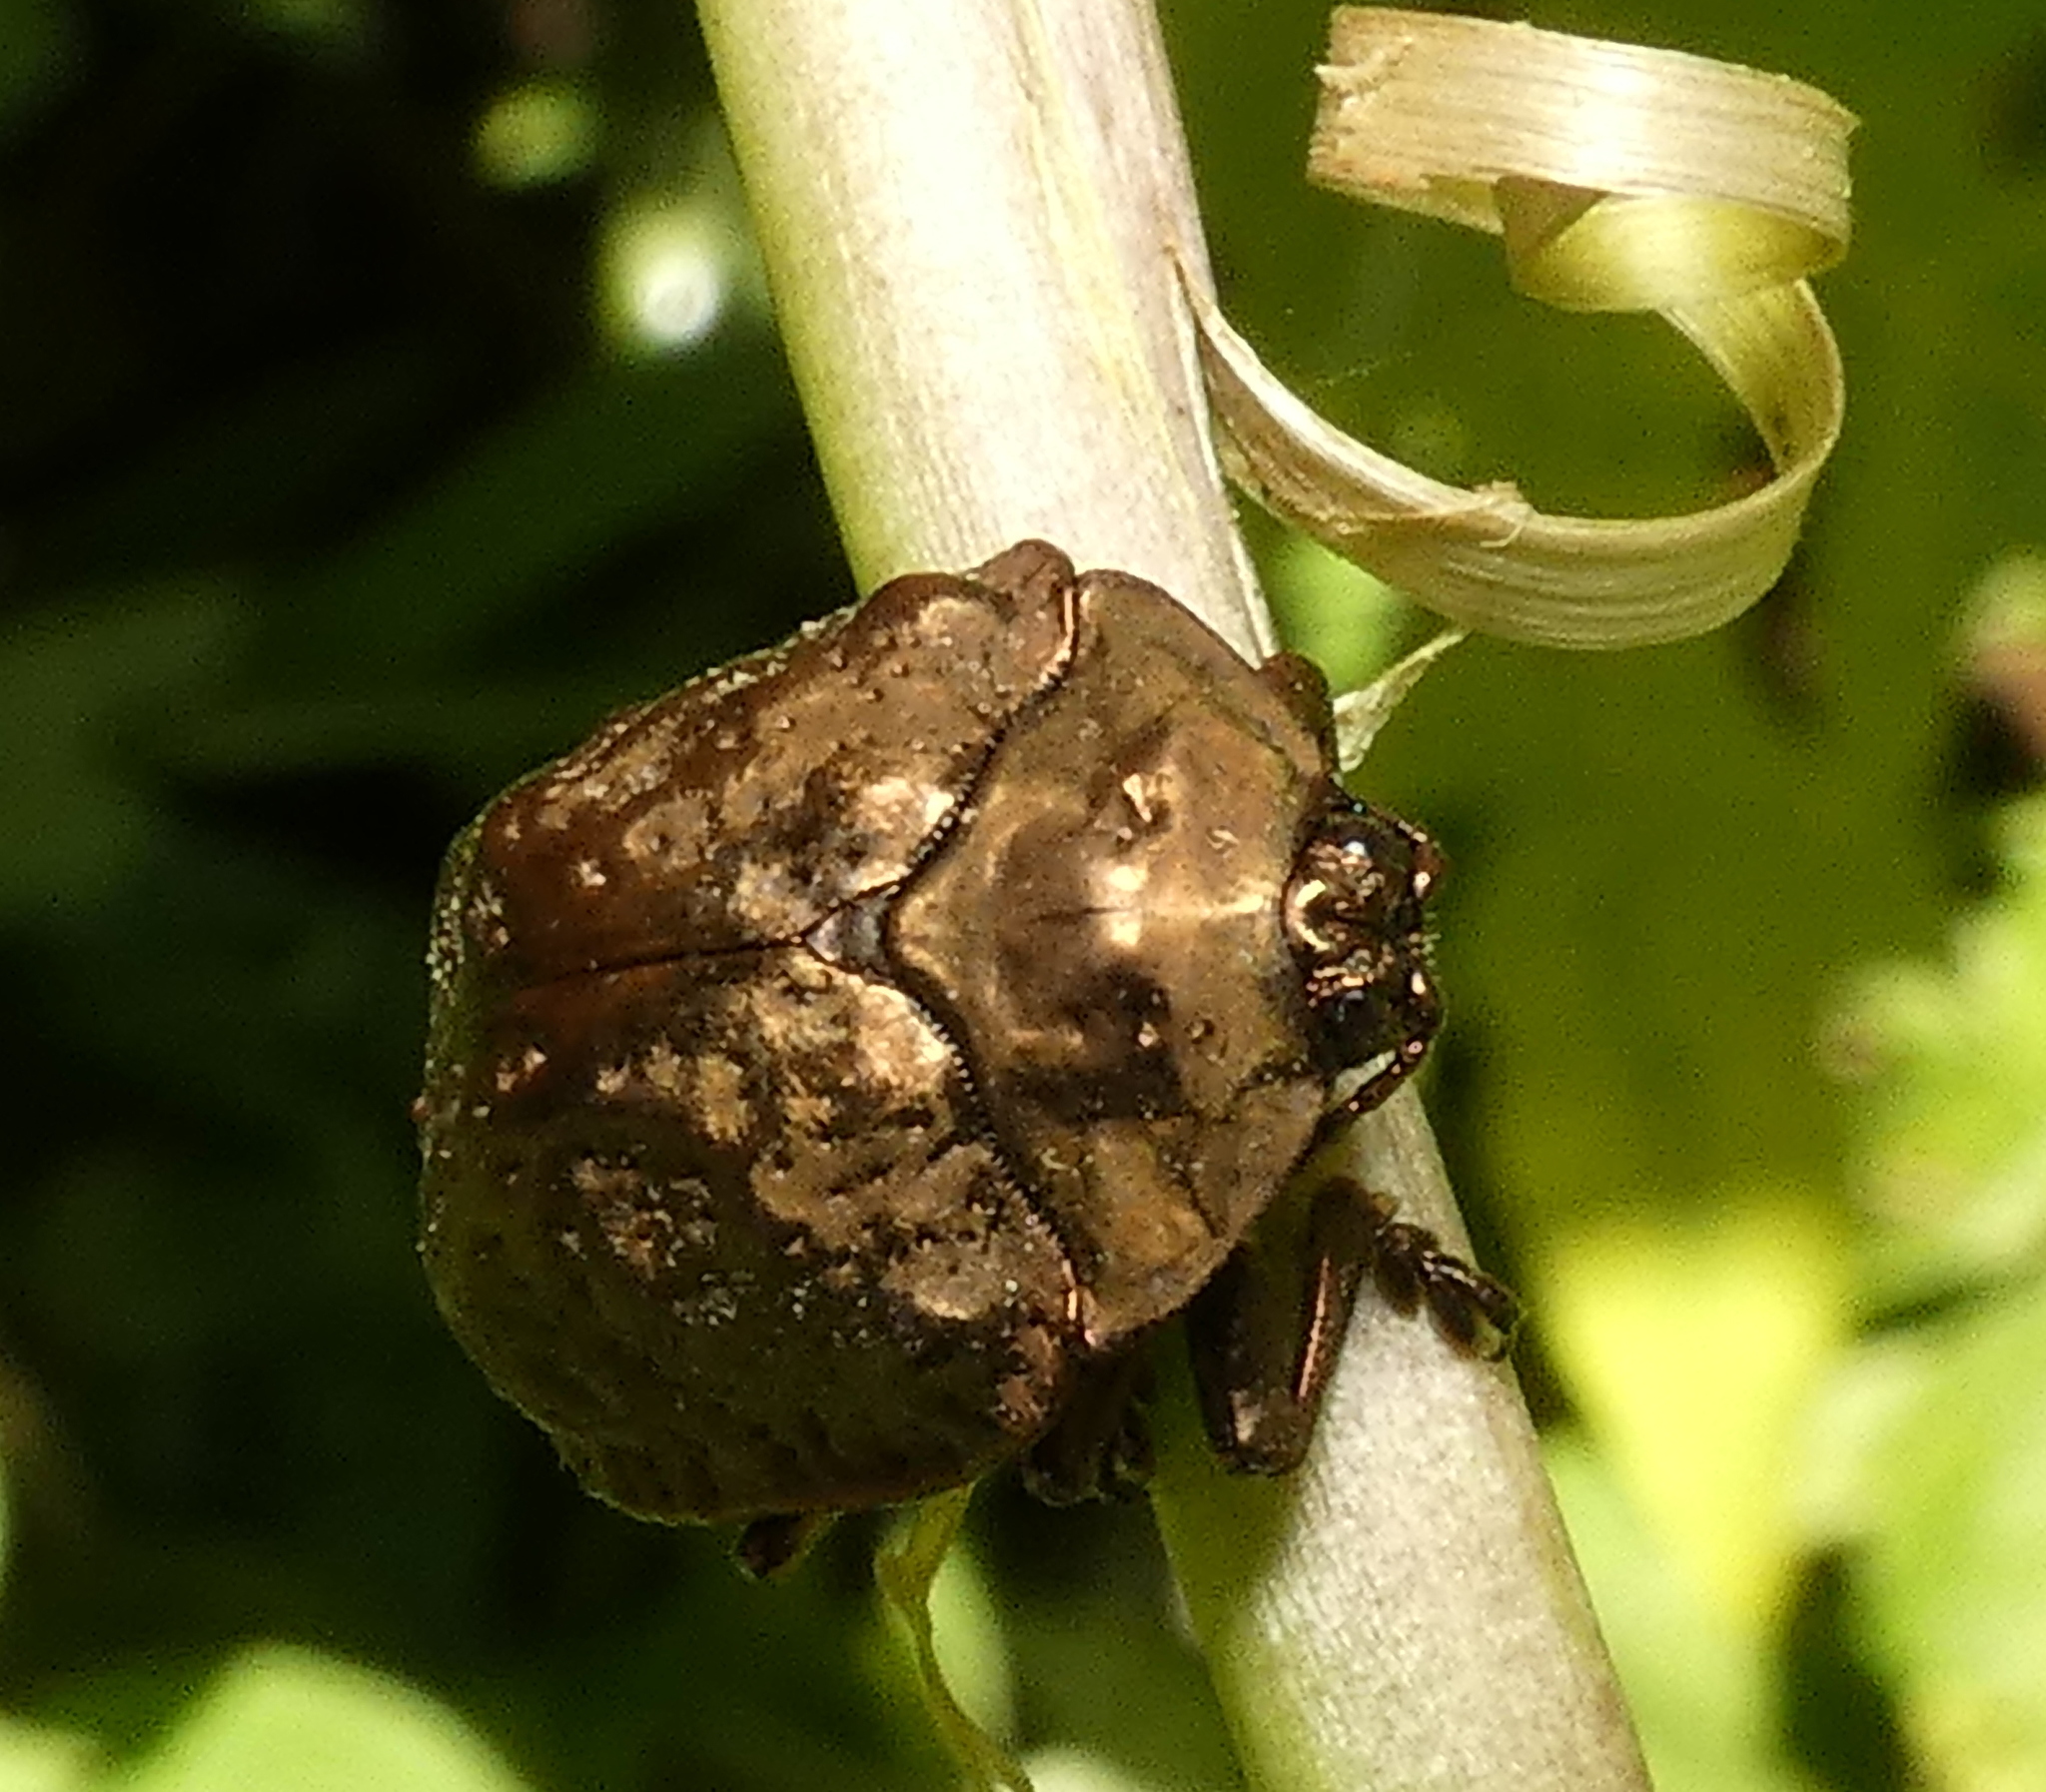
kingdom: Animalia
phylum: Arthropoda
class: Insecta
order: Coleoptera
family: Chrysomelidae
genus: Polychalca
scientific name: Polychalca aerea
